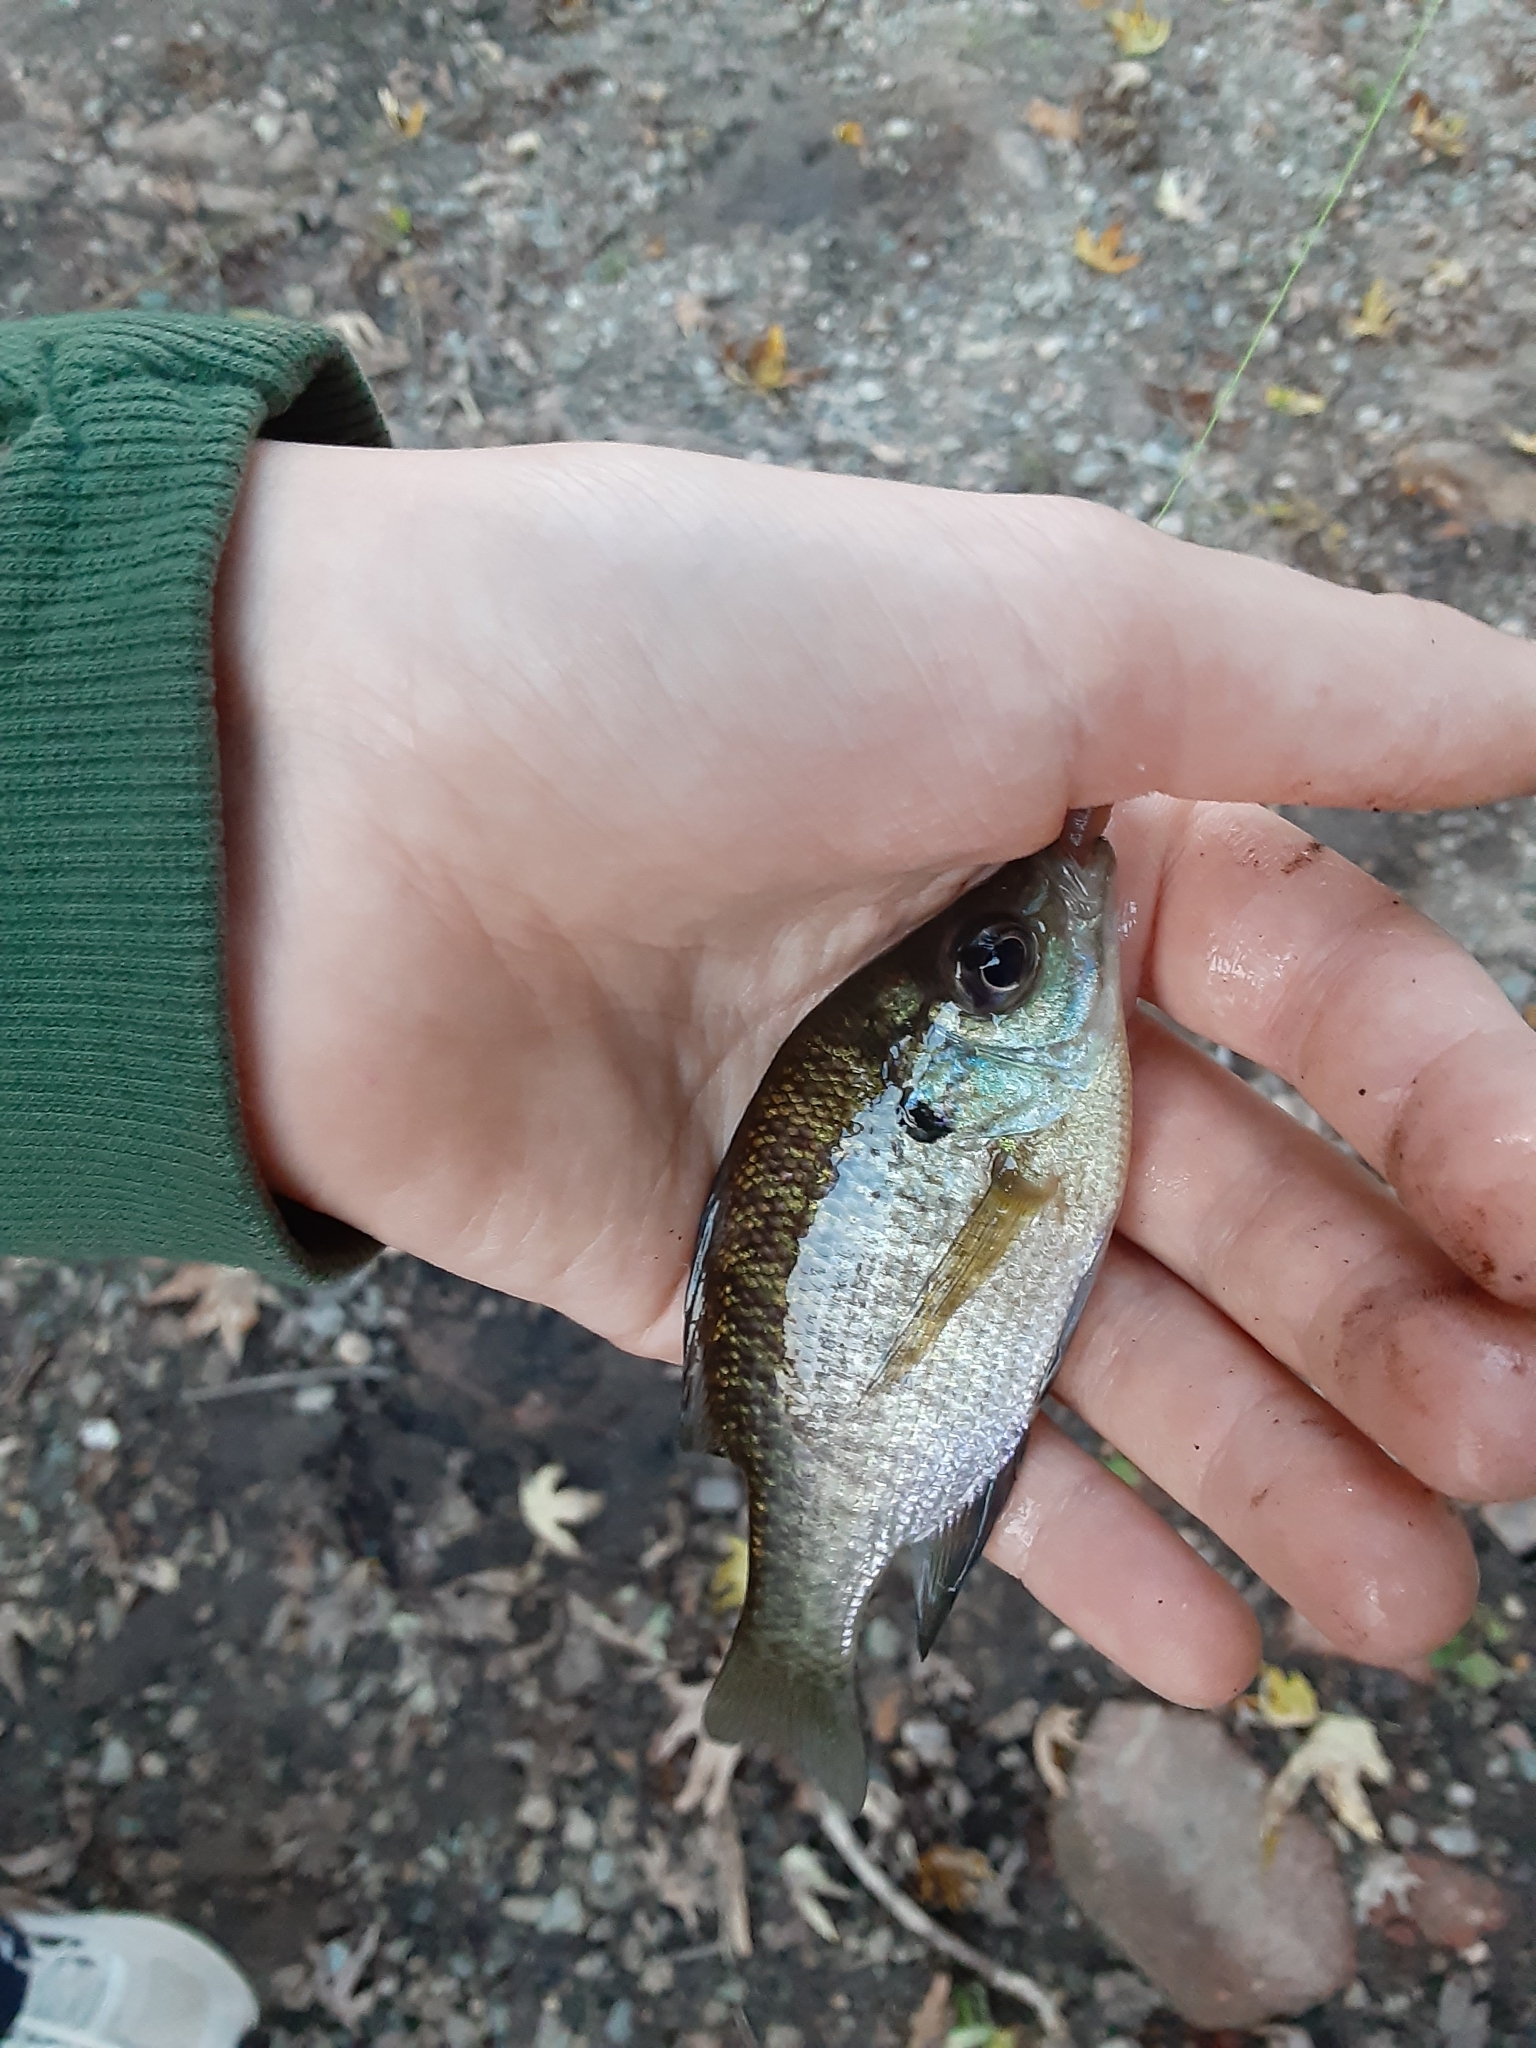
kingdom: Animalia
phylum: Chordata
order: Perciformes
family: Centrarchidae
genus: Lepomis
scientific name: Lepomis macrochirus
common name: Bluegill
